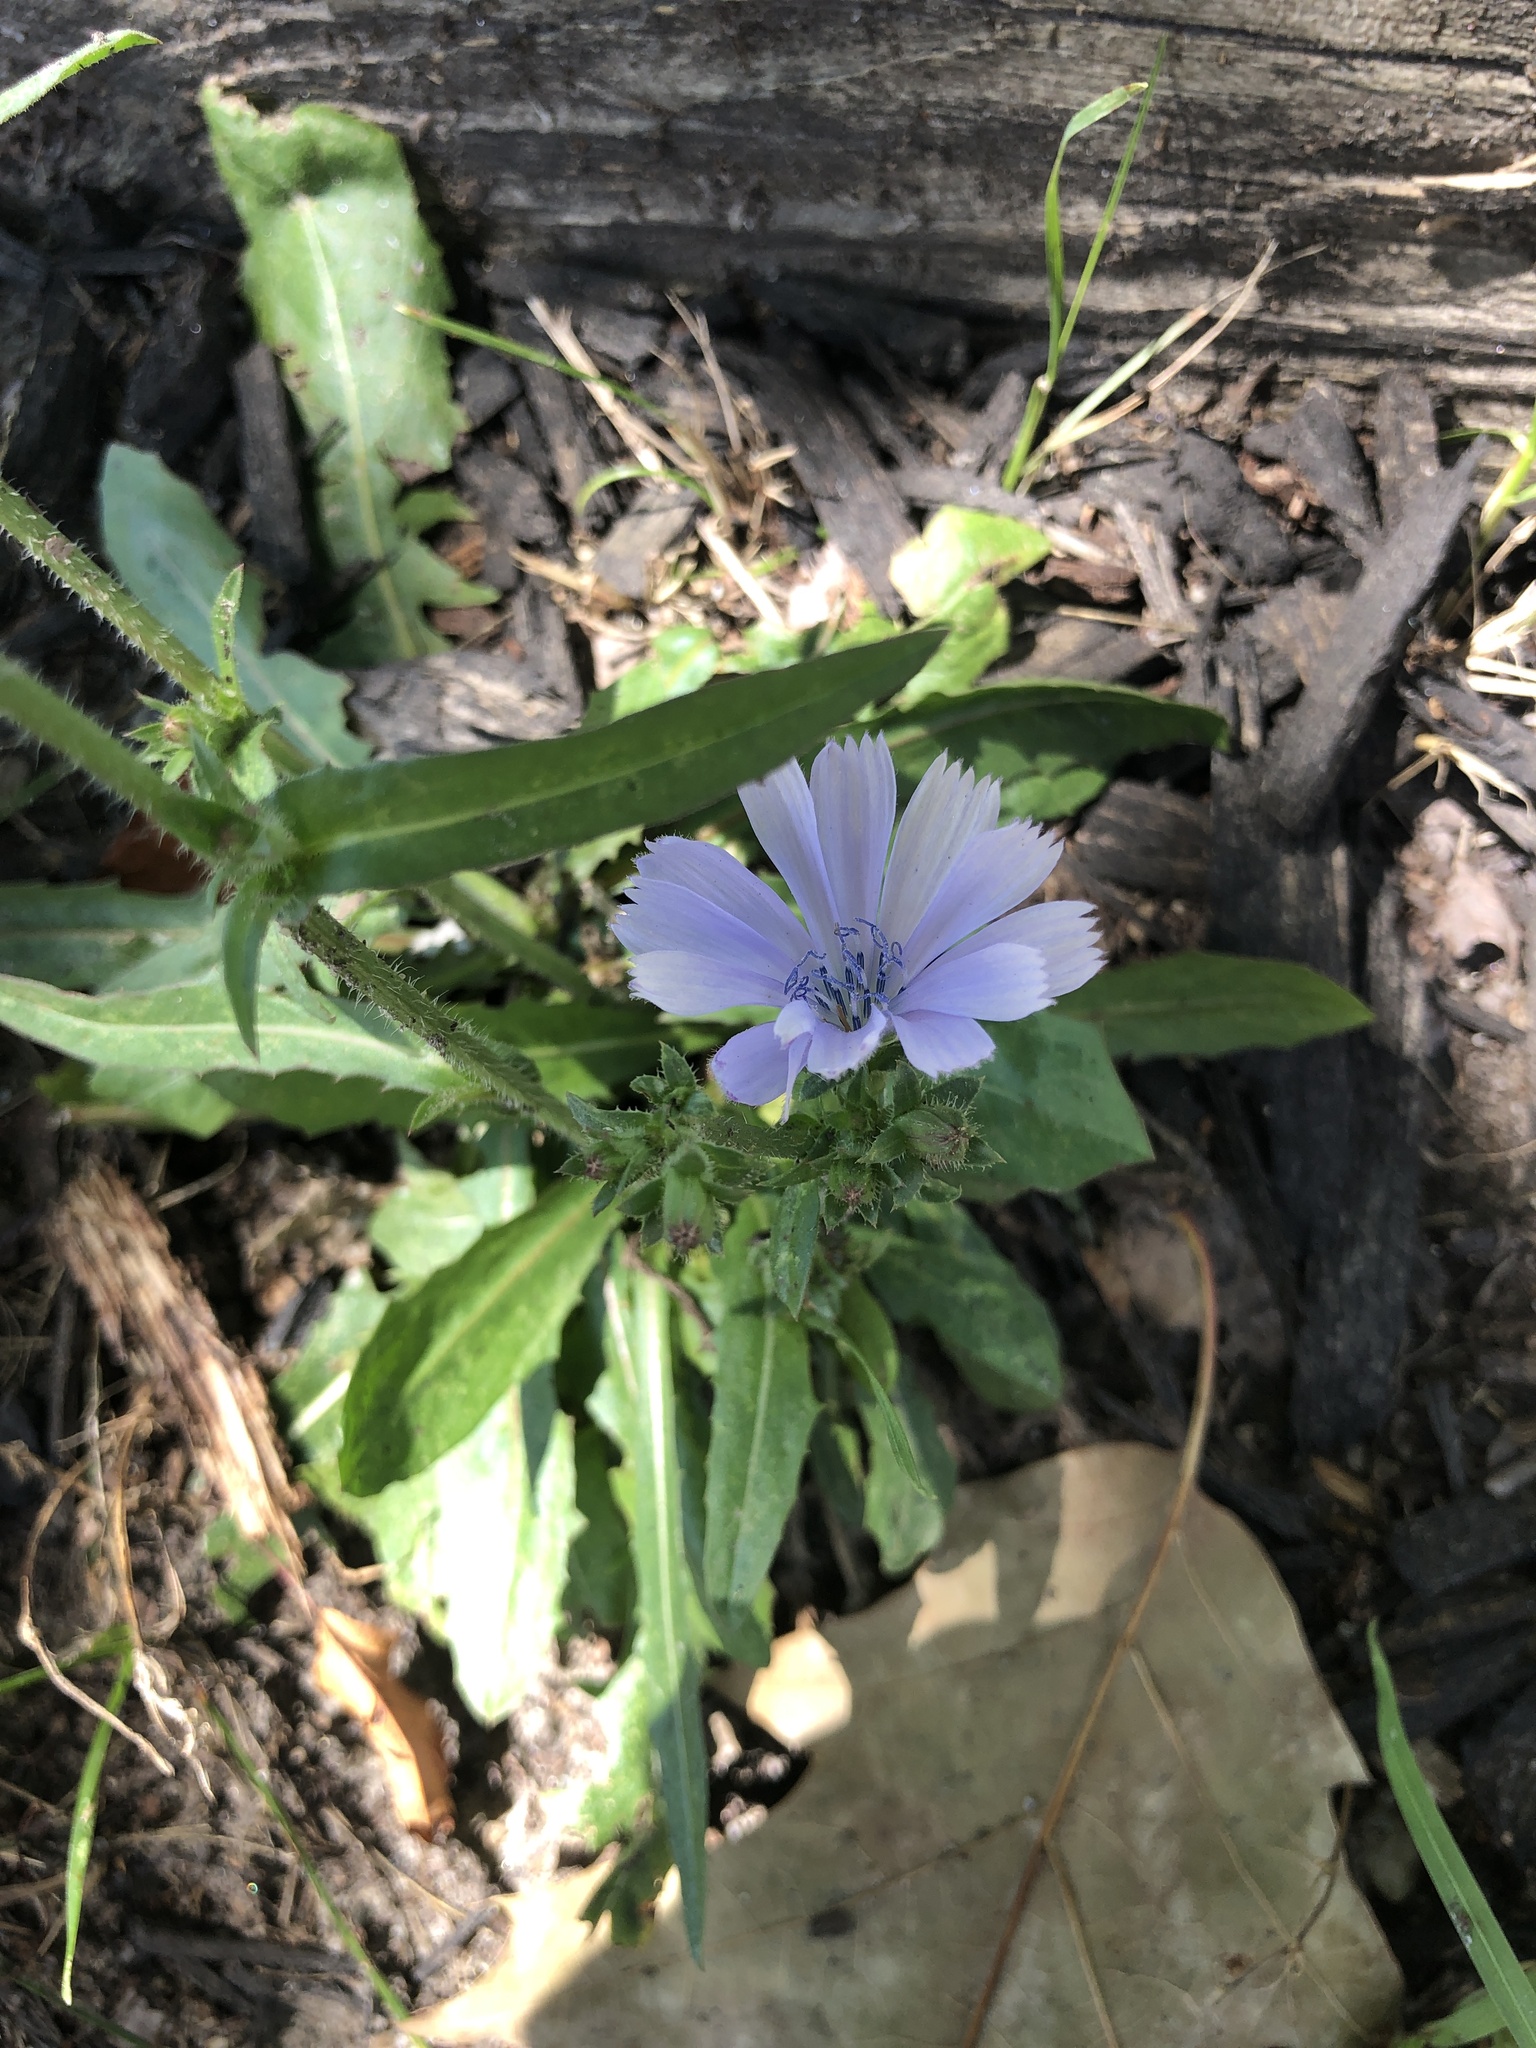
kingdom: Plantae
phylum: Tracheophyta
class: Magnoliopsida
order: Asterales
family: Asteraceae
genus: Cichorium
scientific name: Cichorium intybus
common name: Chicory
